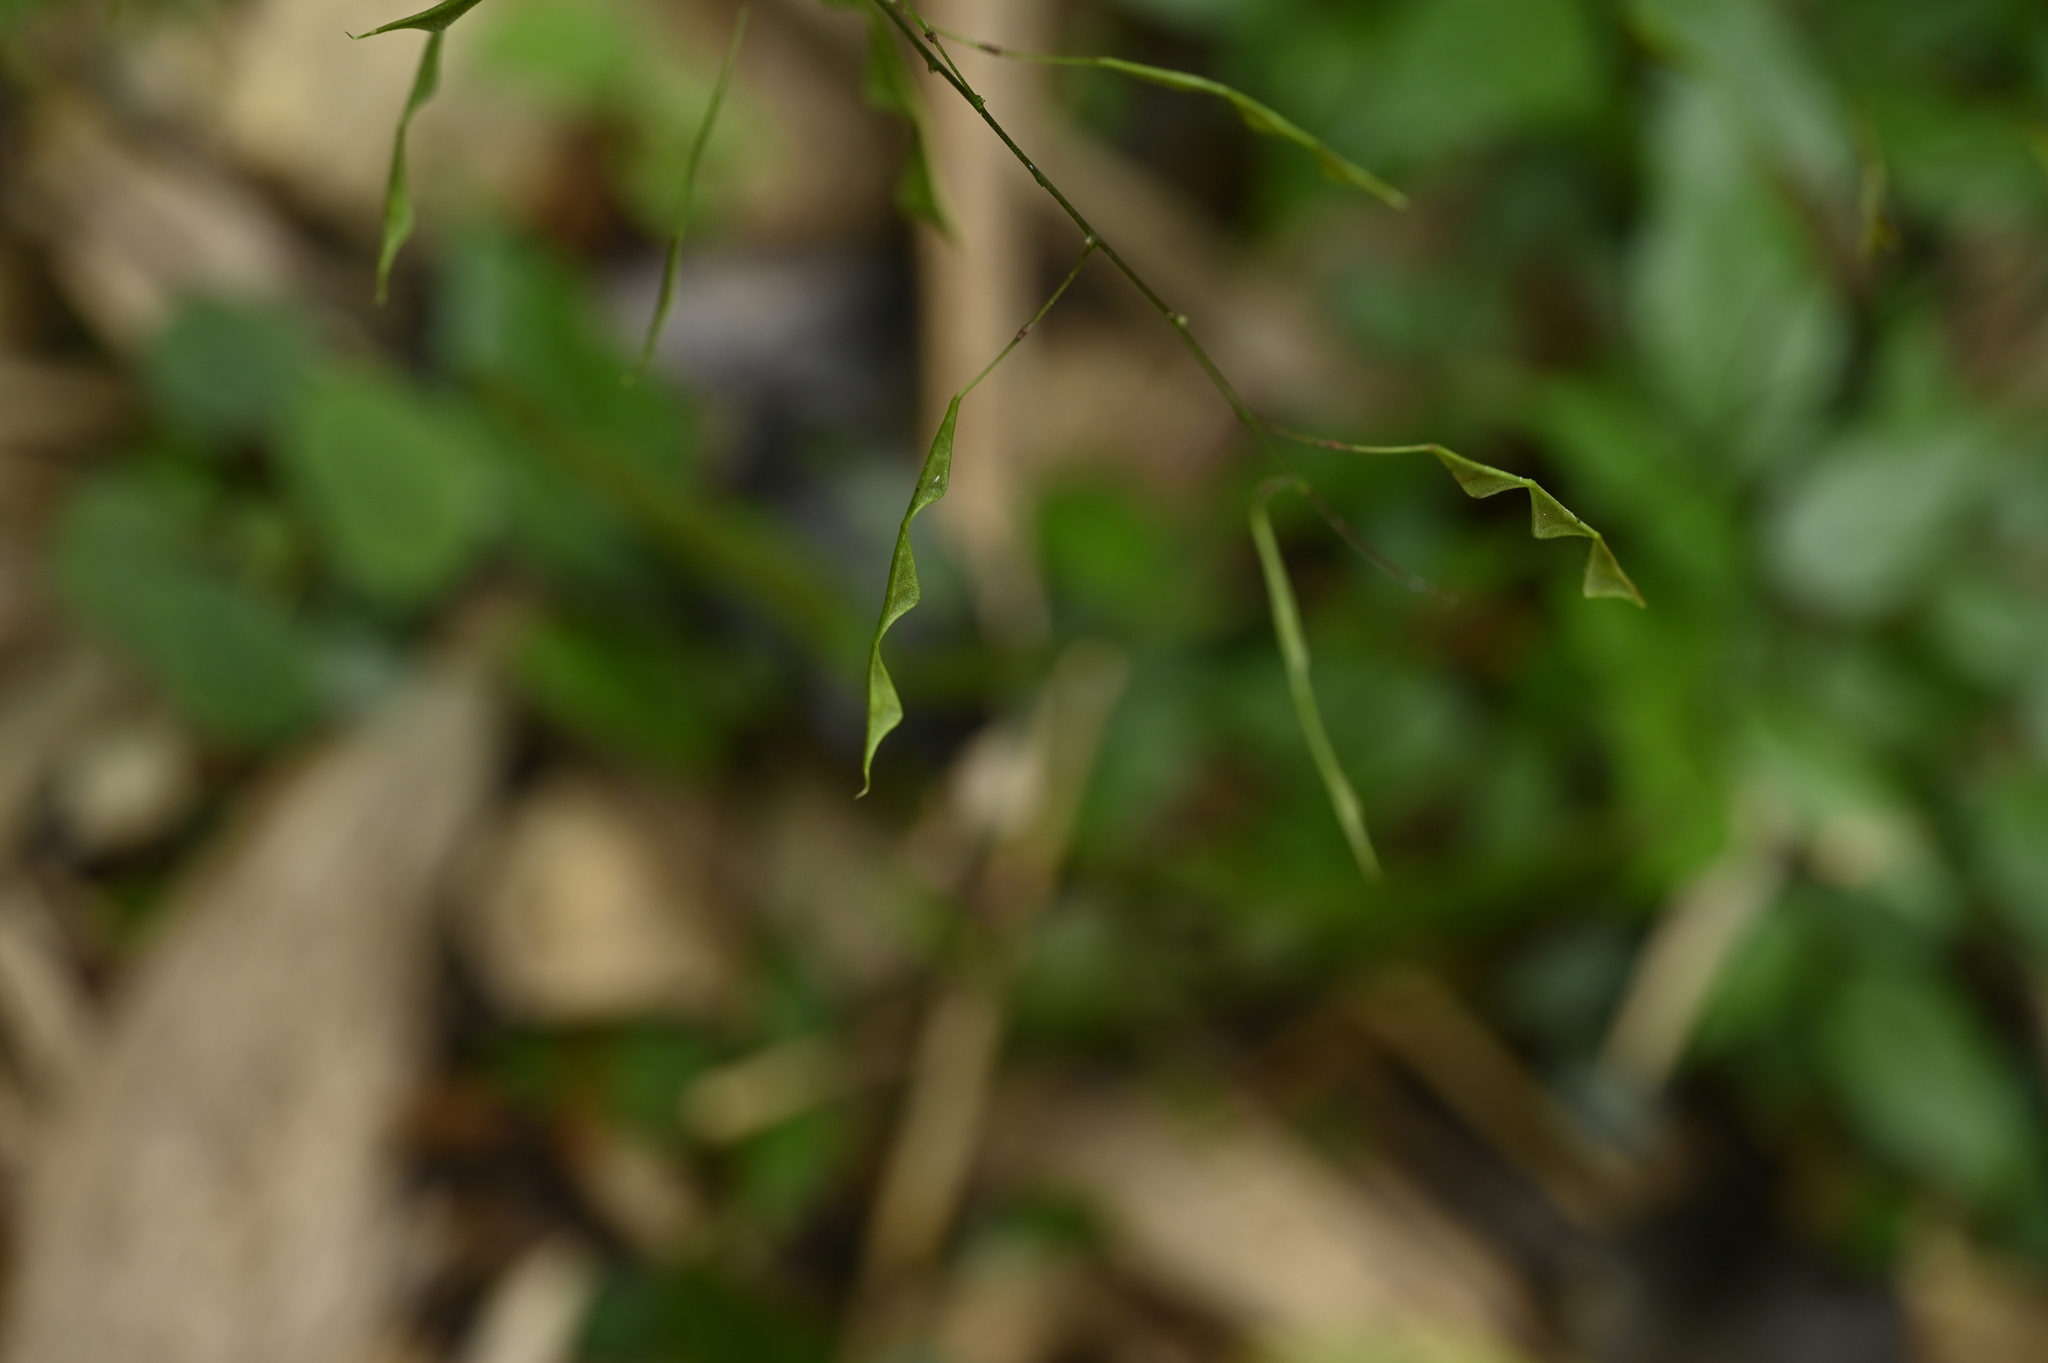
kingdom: Plantae
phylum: Tracheophyta
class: Magnoliopsida
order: Fabales
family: Fabaceae
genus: Hylodesmum
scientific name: Hylodesmum leptopus
